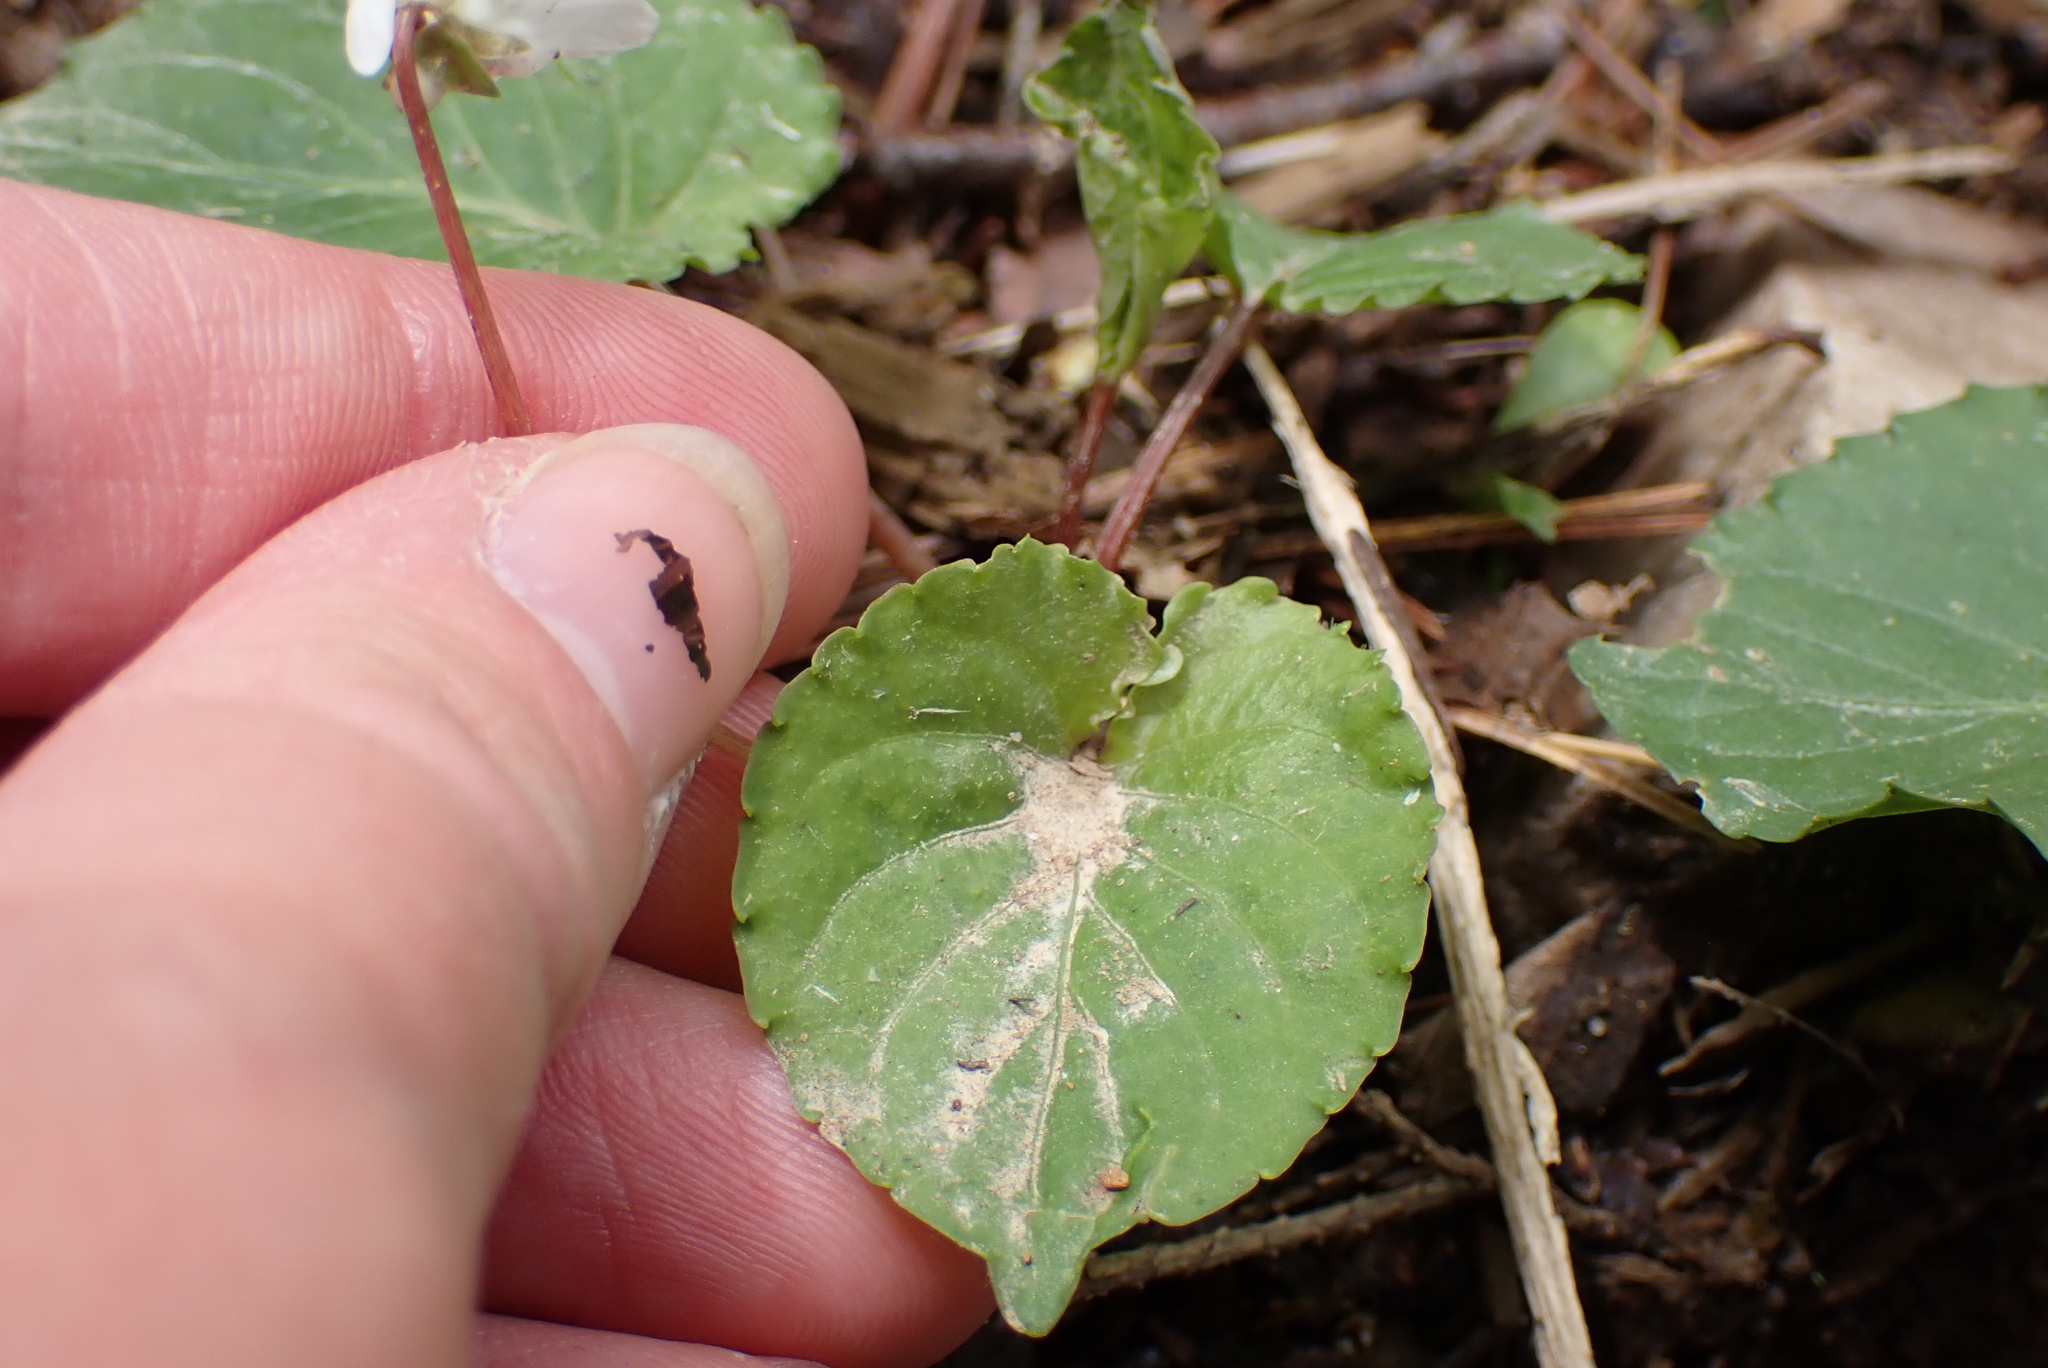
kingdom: Plantae
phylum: Tracheophyta
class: Magnoliopsida
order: Malpighiales
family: Violaceae
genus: Viola
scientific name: Viola blanda
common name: Sweet white violet
